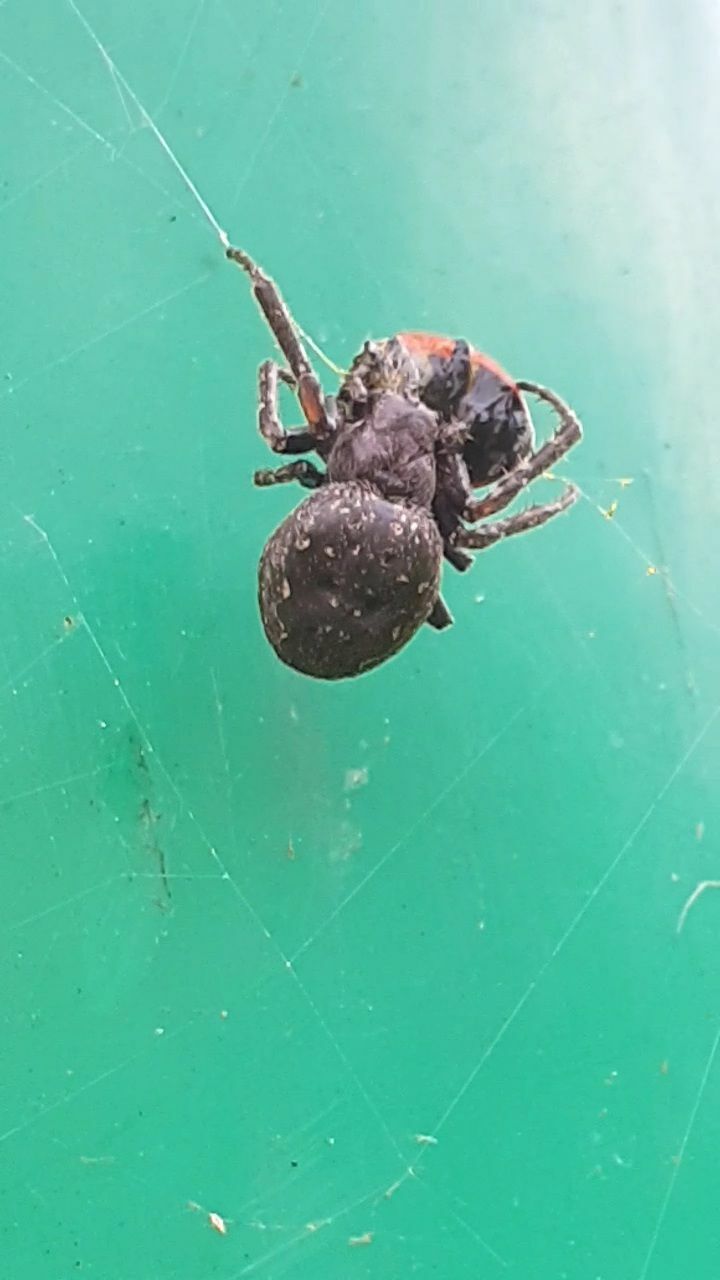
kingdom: Animalia
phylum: Arthropoda
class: Arachnida
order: Araneae
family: Araneidae
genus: Nuctenea
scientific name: Nuctenea umbratica
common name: Toad spider
